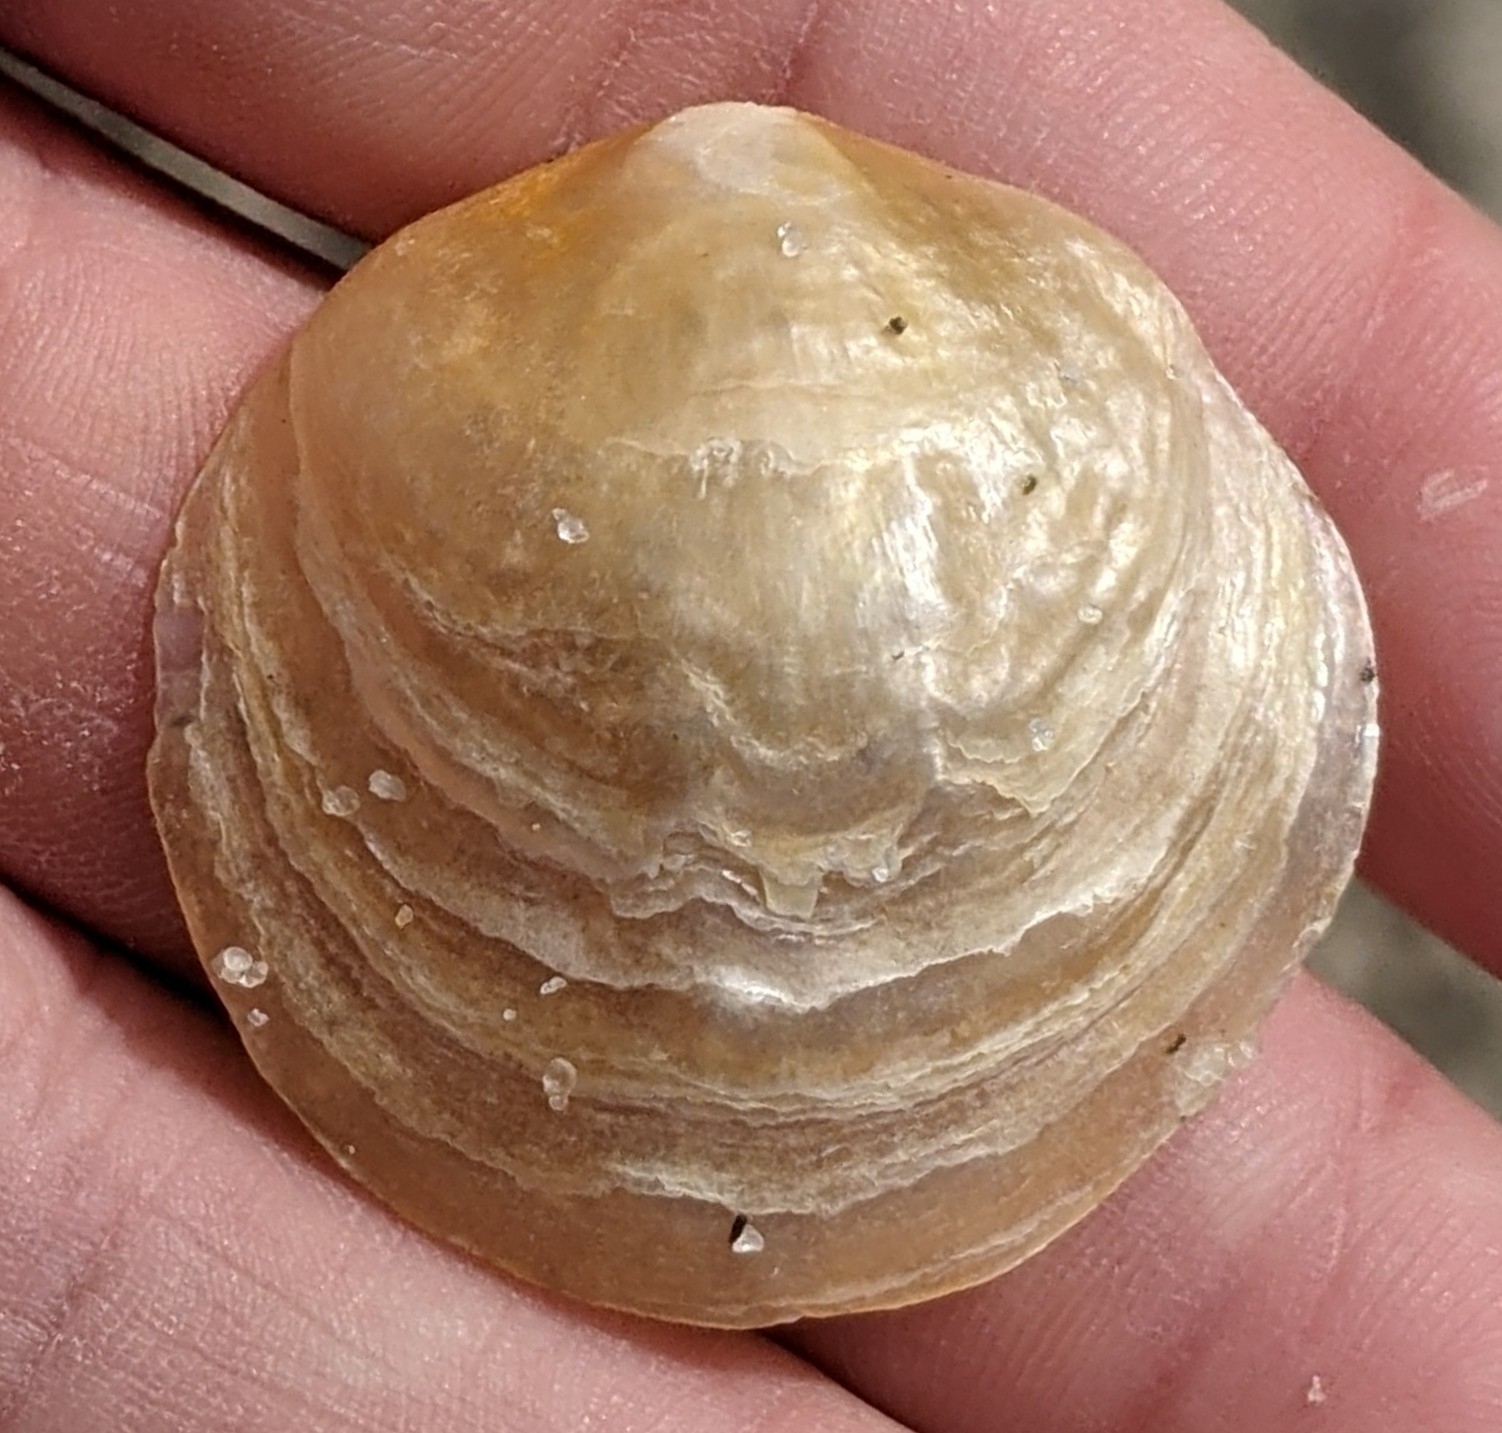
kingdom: Animalia
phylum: Mollusca
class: Bivalvia
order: Pectinida
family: Anomiidae
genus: Anomia
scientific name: Anomia simplex
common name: Common jingle shell
